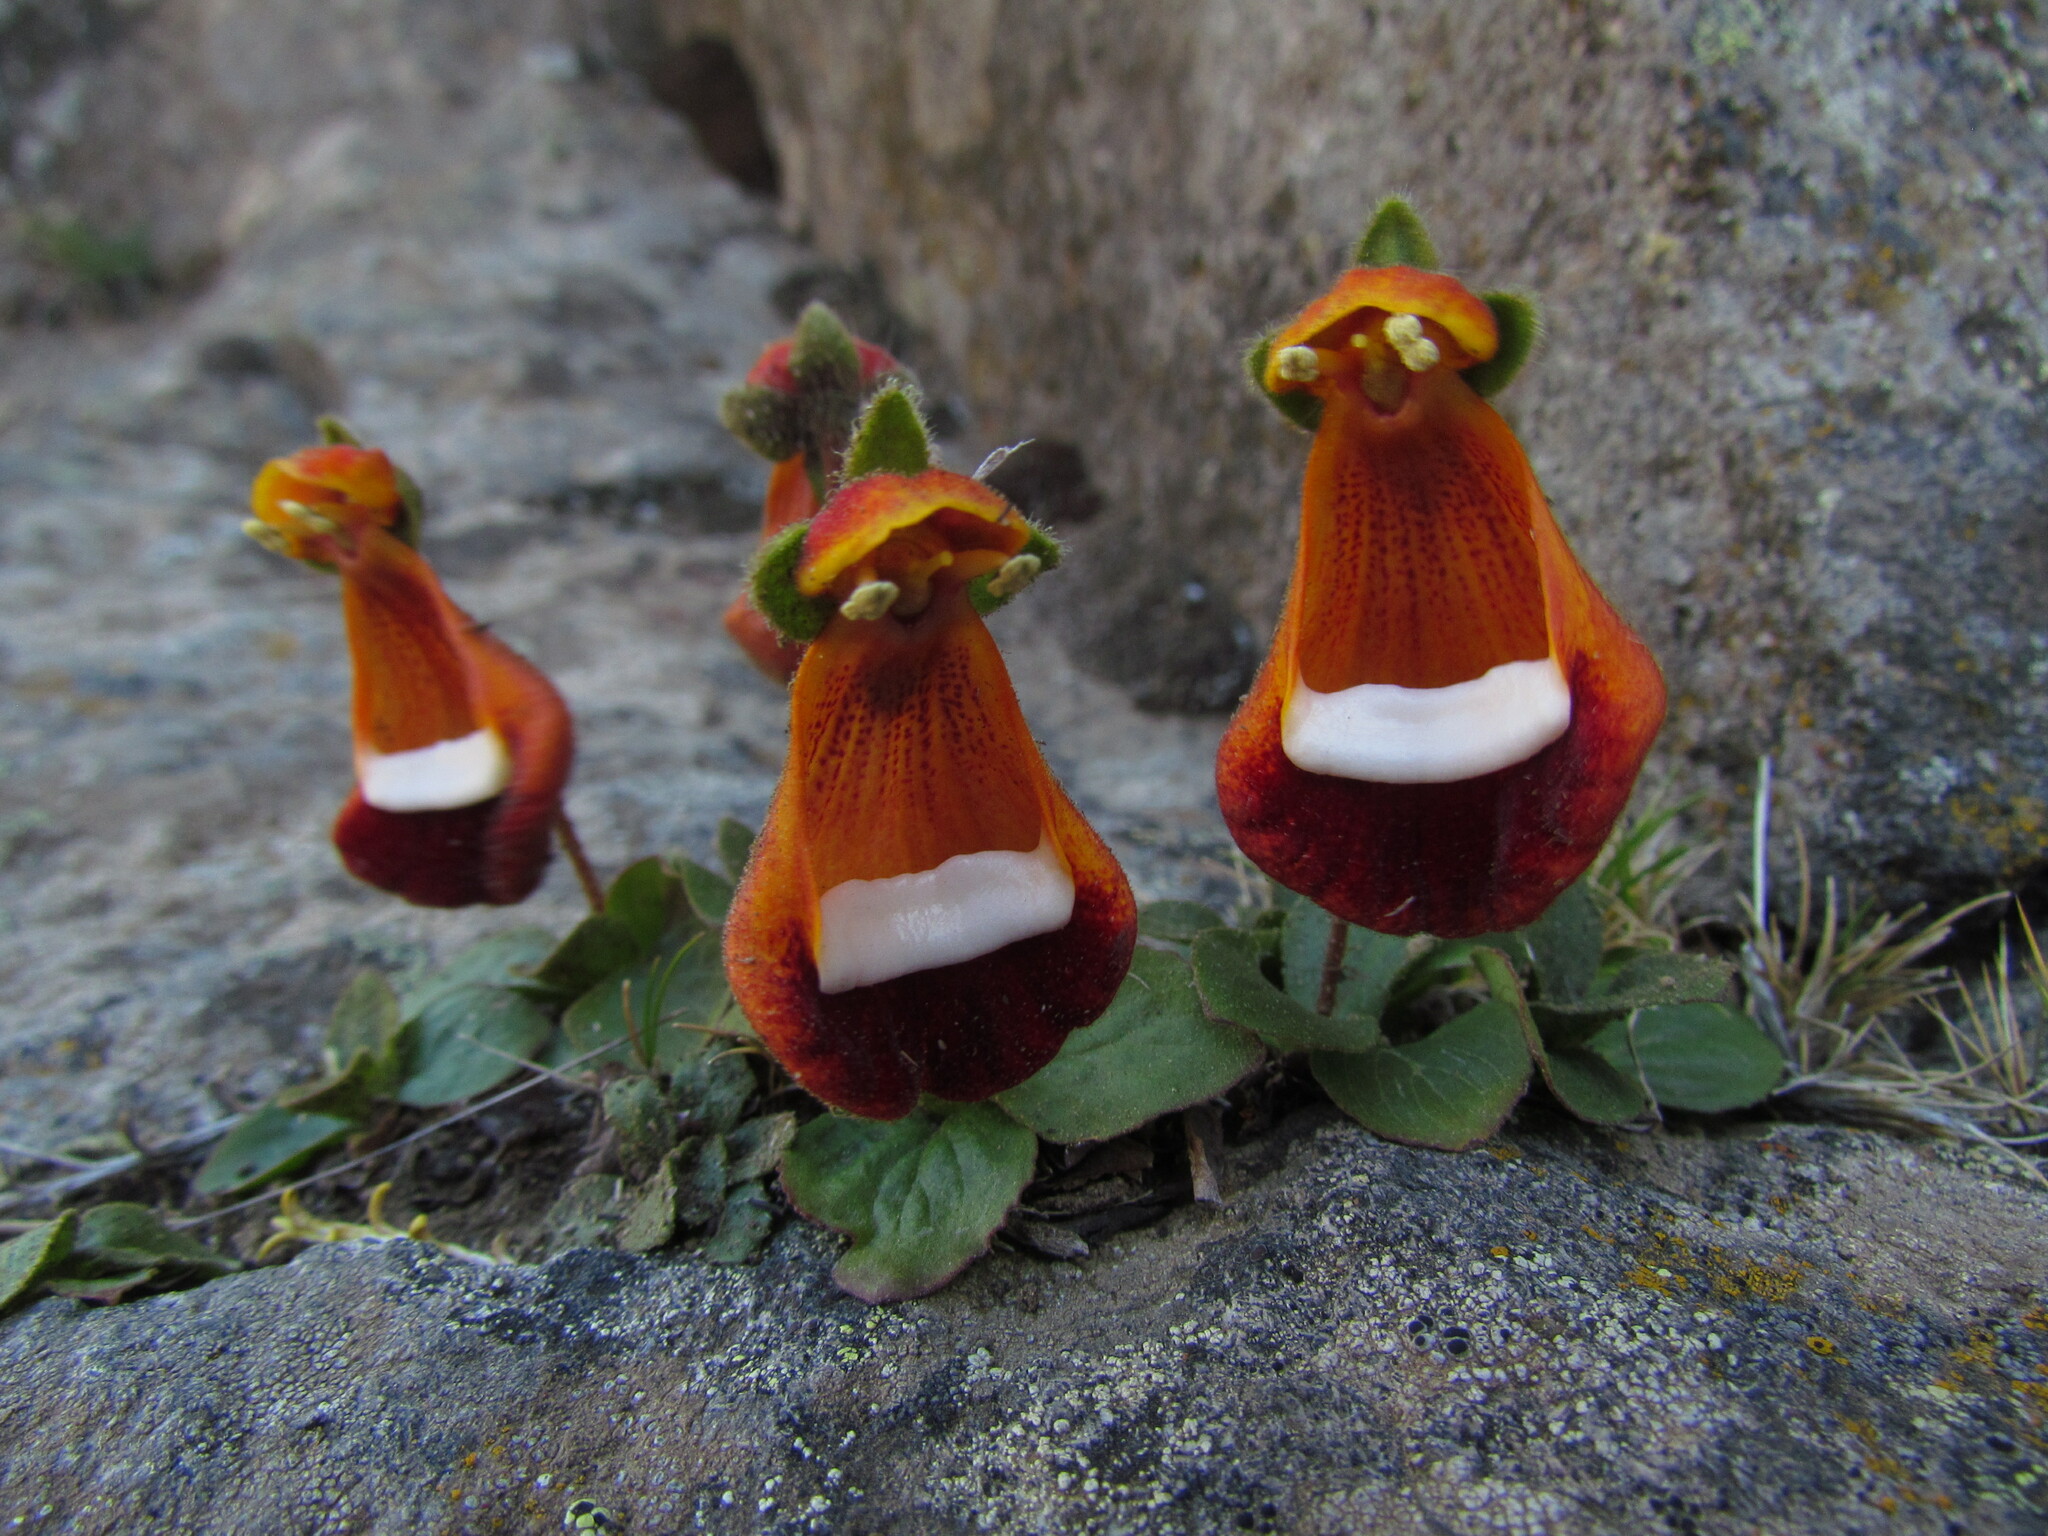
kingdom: Plantae
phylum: Tracheophyta
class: Magnoliopsida
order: Lamiales
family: Calceolariaceae
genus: Calceolaria
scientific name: Calceolaria uniflora
